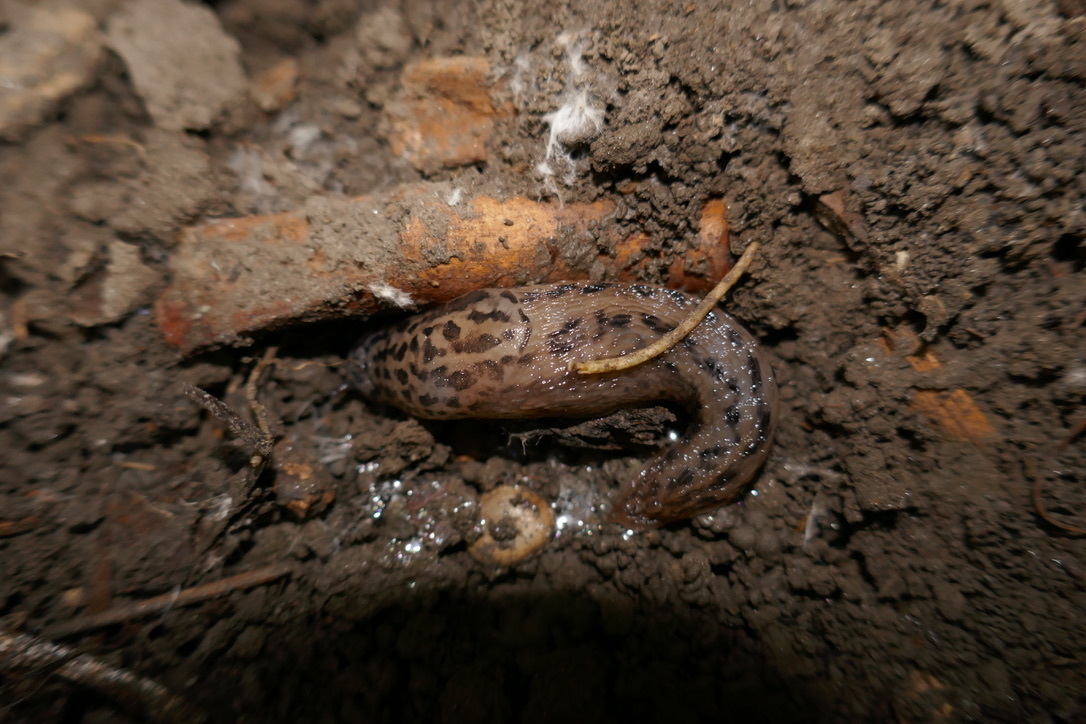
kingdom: Animalia
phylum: Mollusca
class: Gastropoda
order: Stylommatophora
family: Limacidae
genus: Limax
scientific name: Limax maximus
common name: Great grey slug
